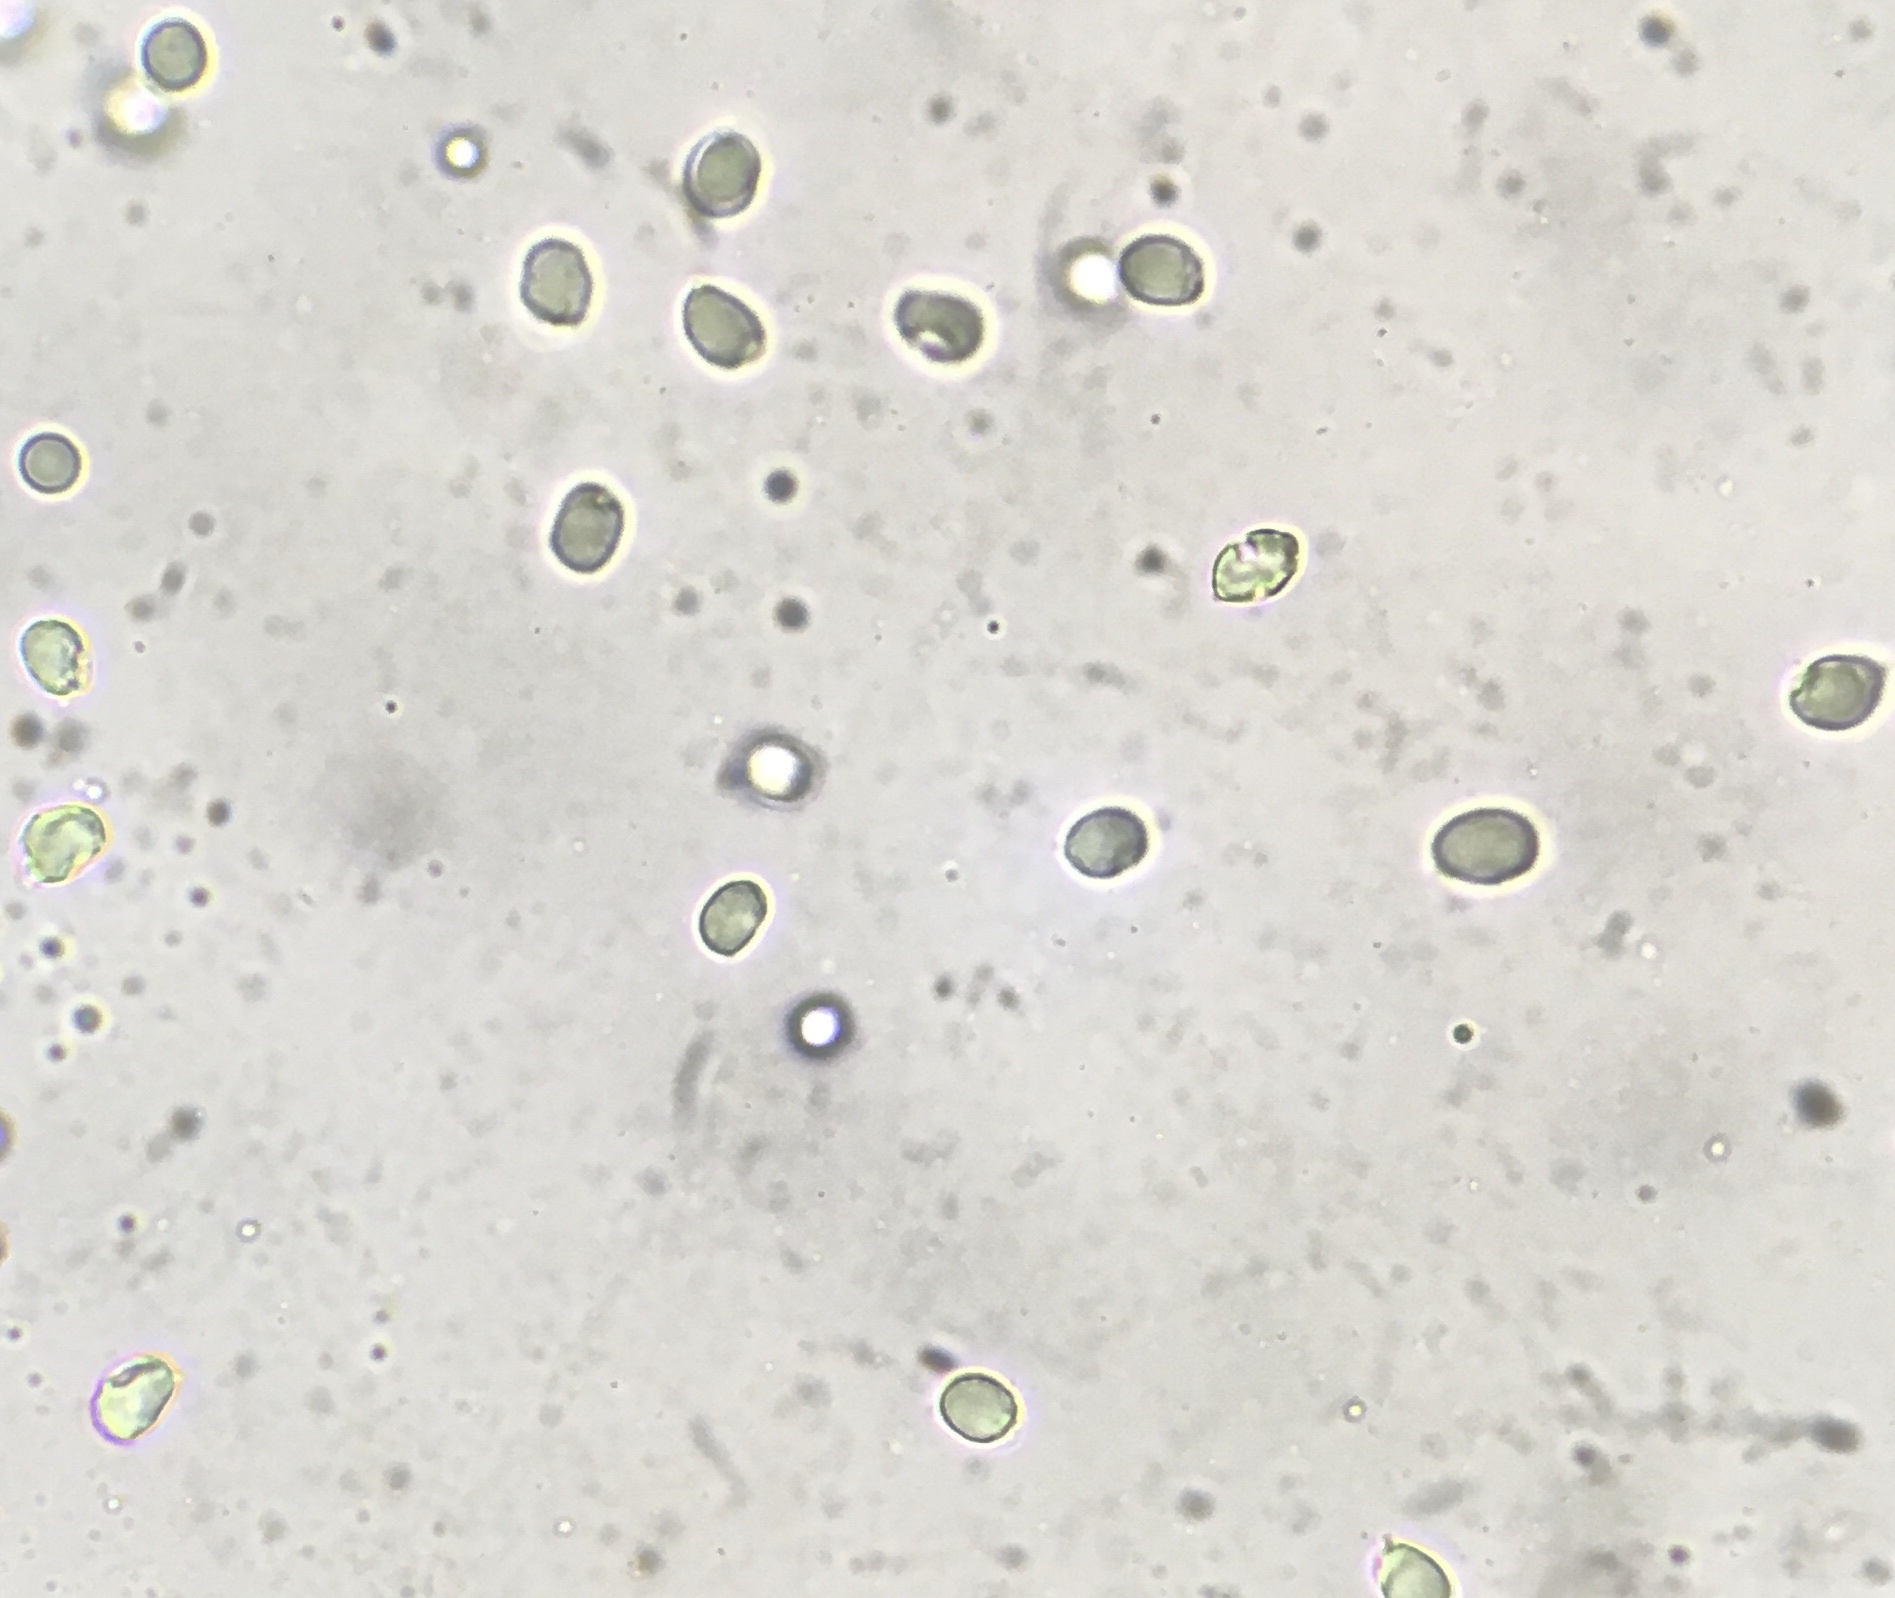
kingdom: Fungi
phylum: Basidiomycota
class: Agaricomycetes
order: Agaricales
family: Tricholomataceae
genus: Tricholomopsis
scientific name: Tricholomopsis sulfureoides
